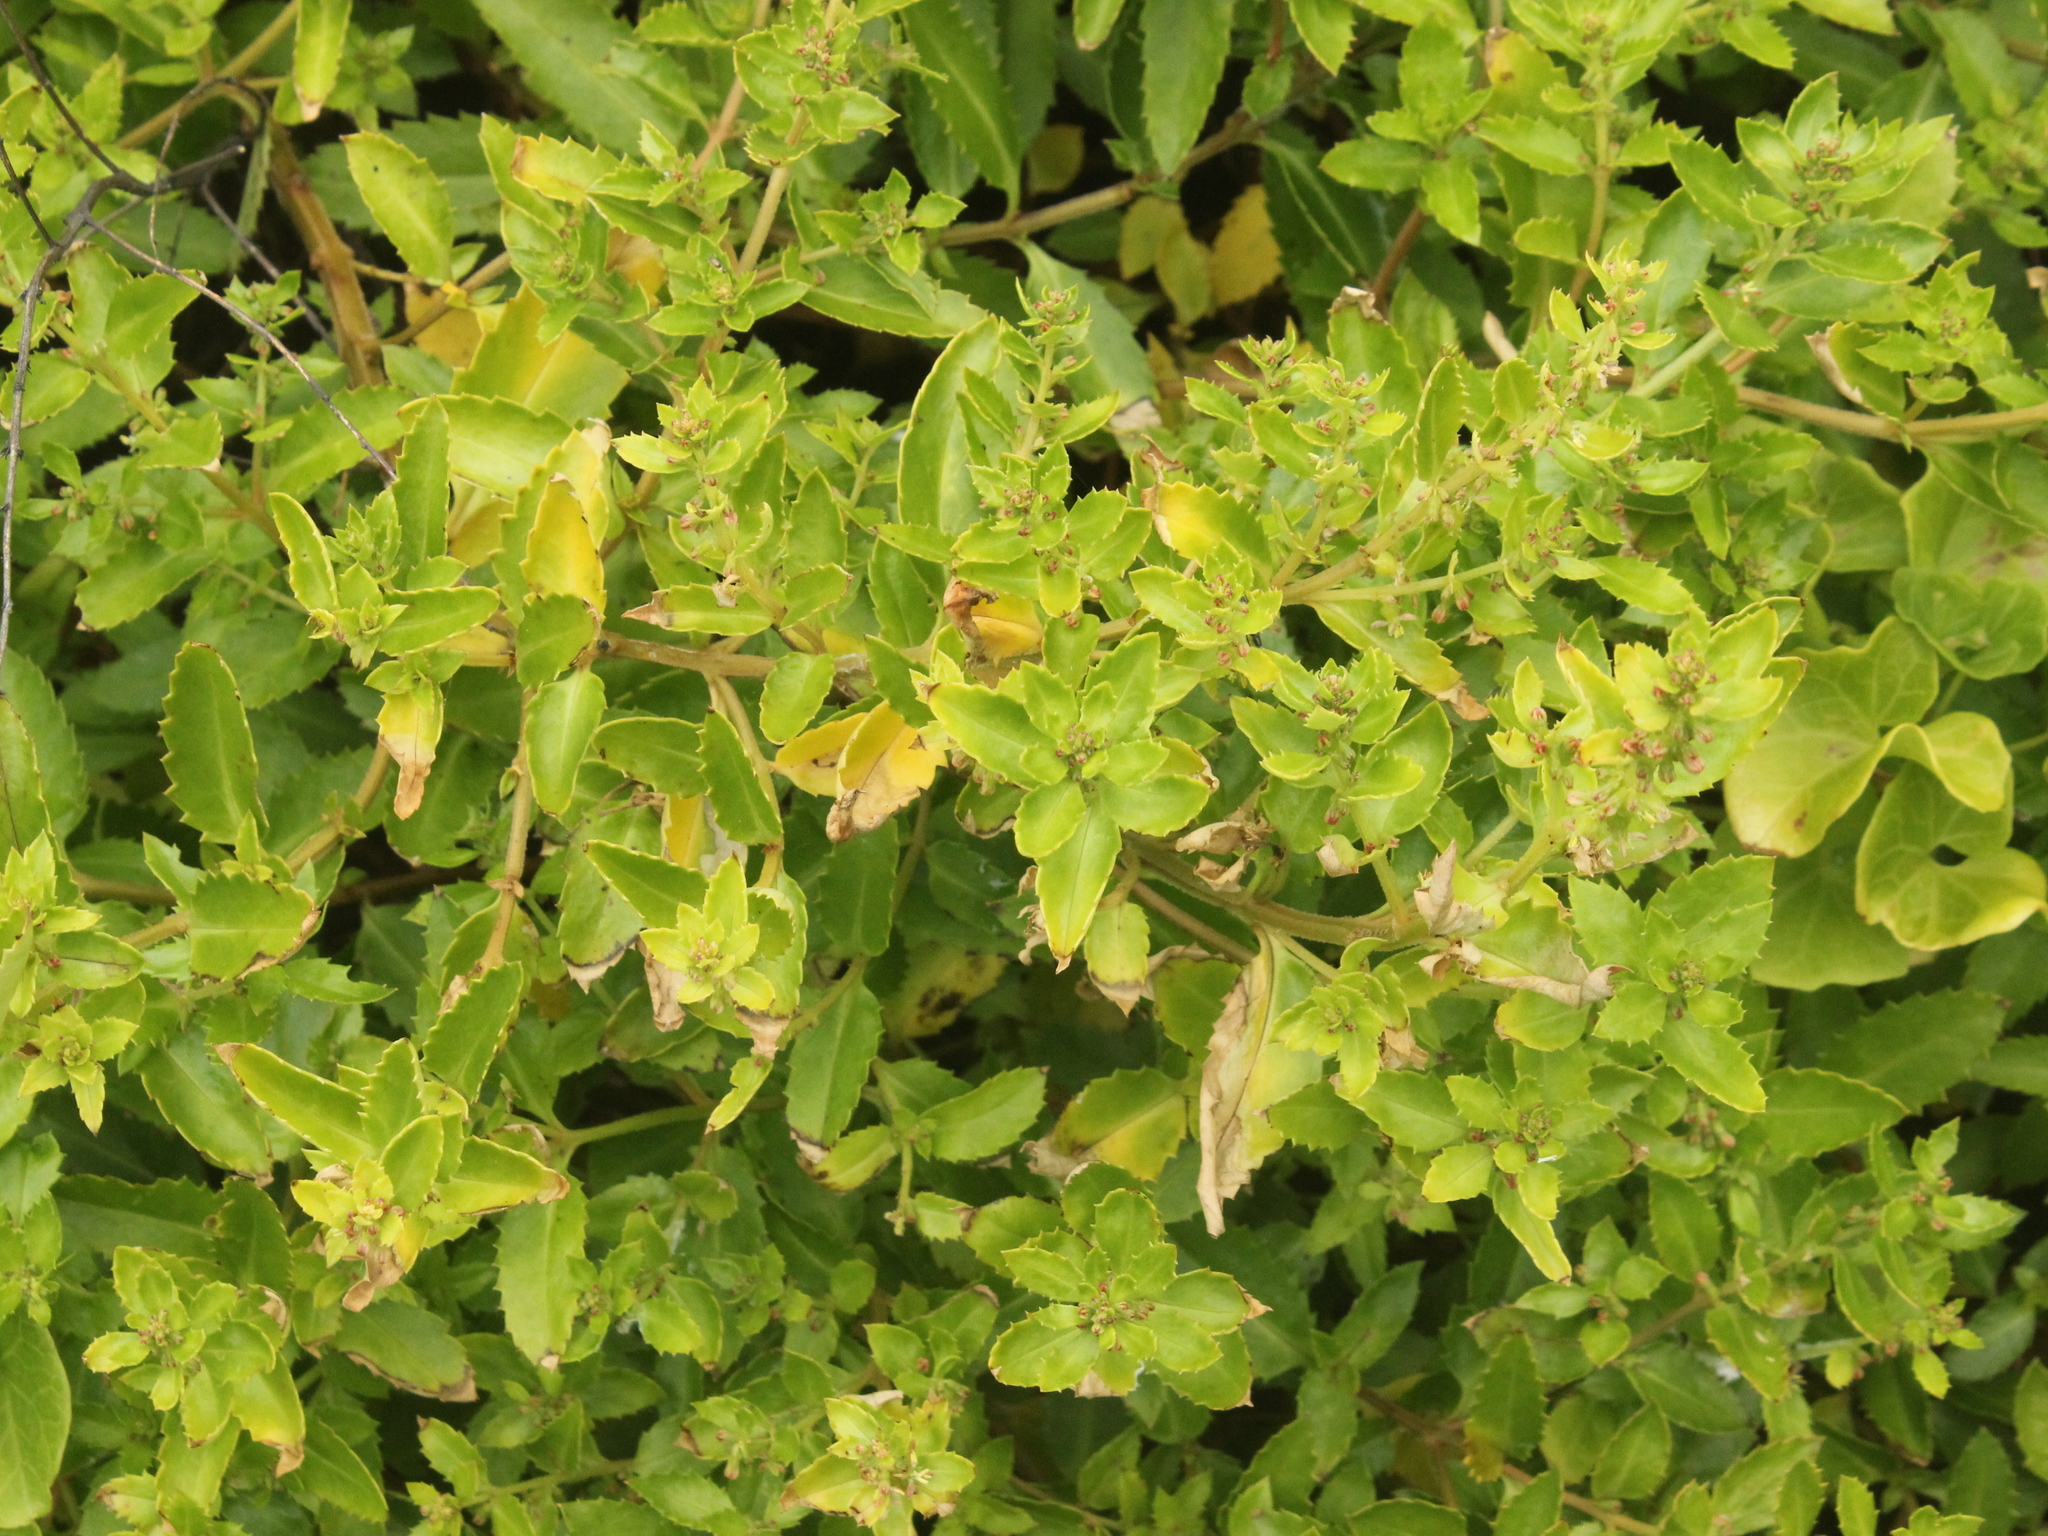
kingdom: Plantae
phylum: Tracheophyta
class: Magnoliopsida
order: Saxifragales
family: Haloragaceae
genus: Haloragis
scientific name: Haloragis erecta
